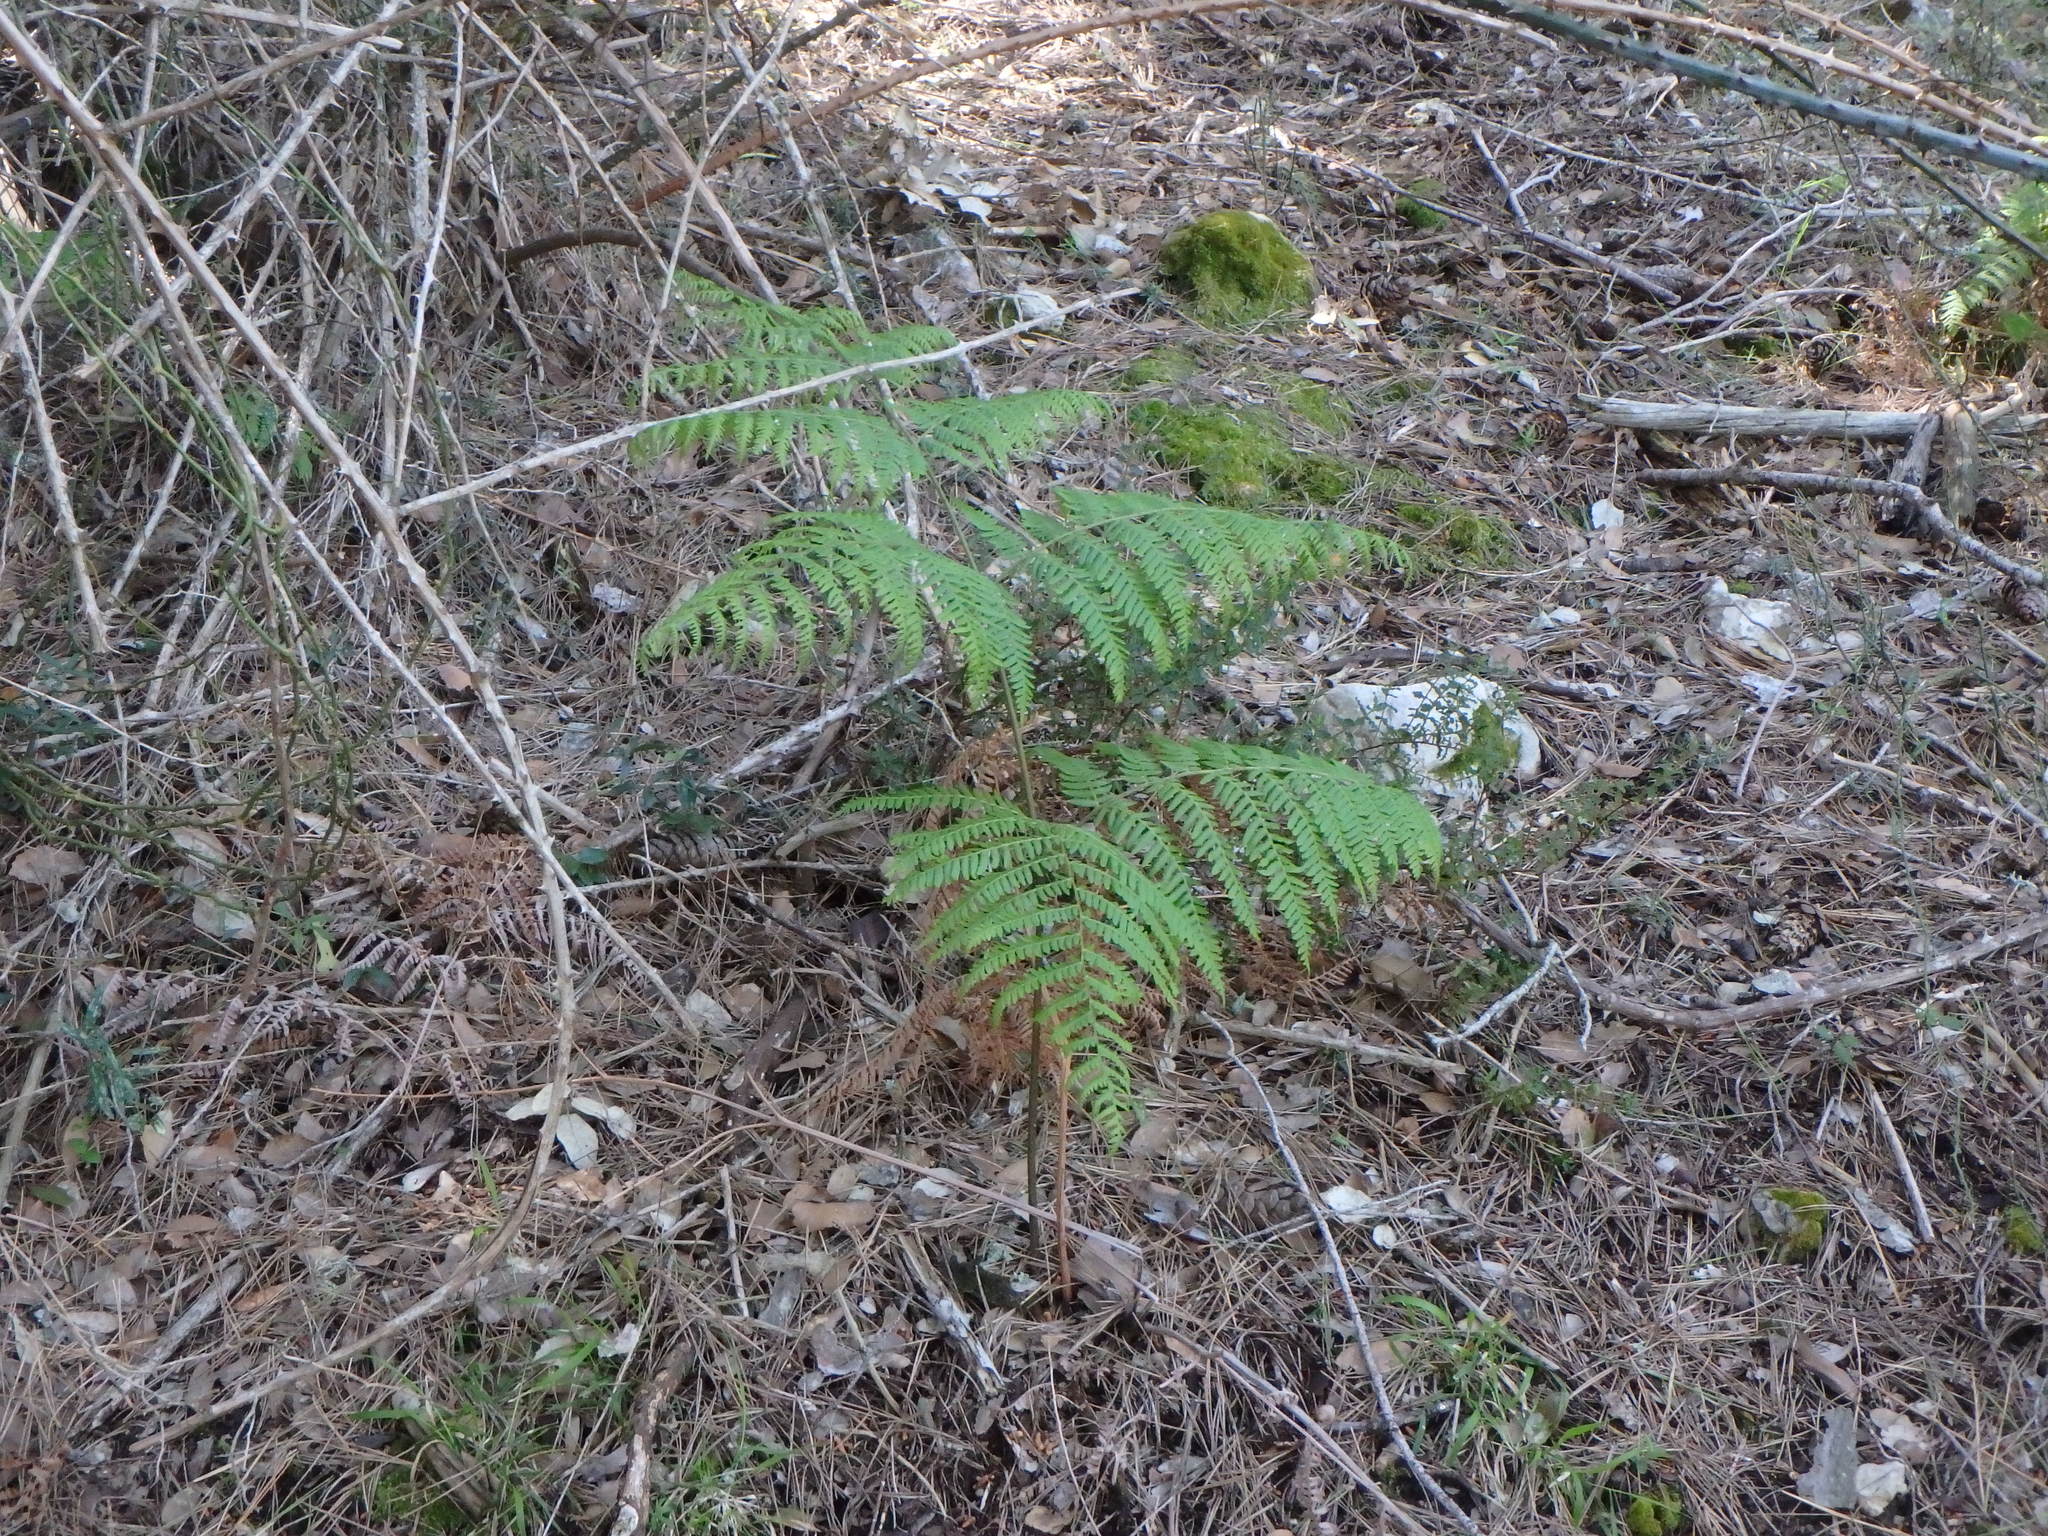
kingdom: Plantae
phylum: Tracheophyta
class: Polypodiopsida
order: Polypodiales
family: Dennstaedtiaceae
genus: Pteridium
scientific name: Pteridium aquilinum
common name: Bracken
